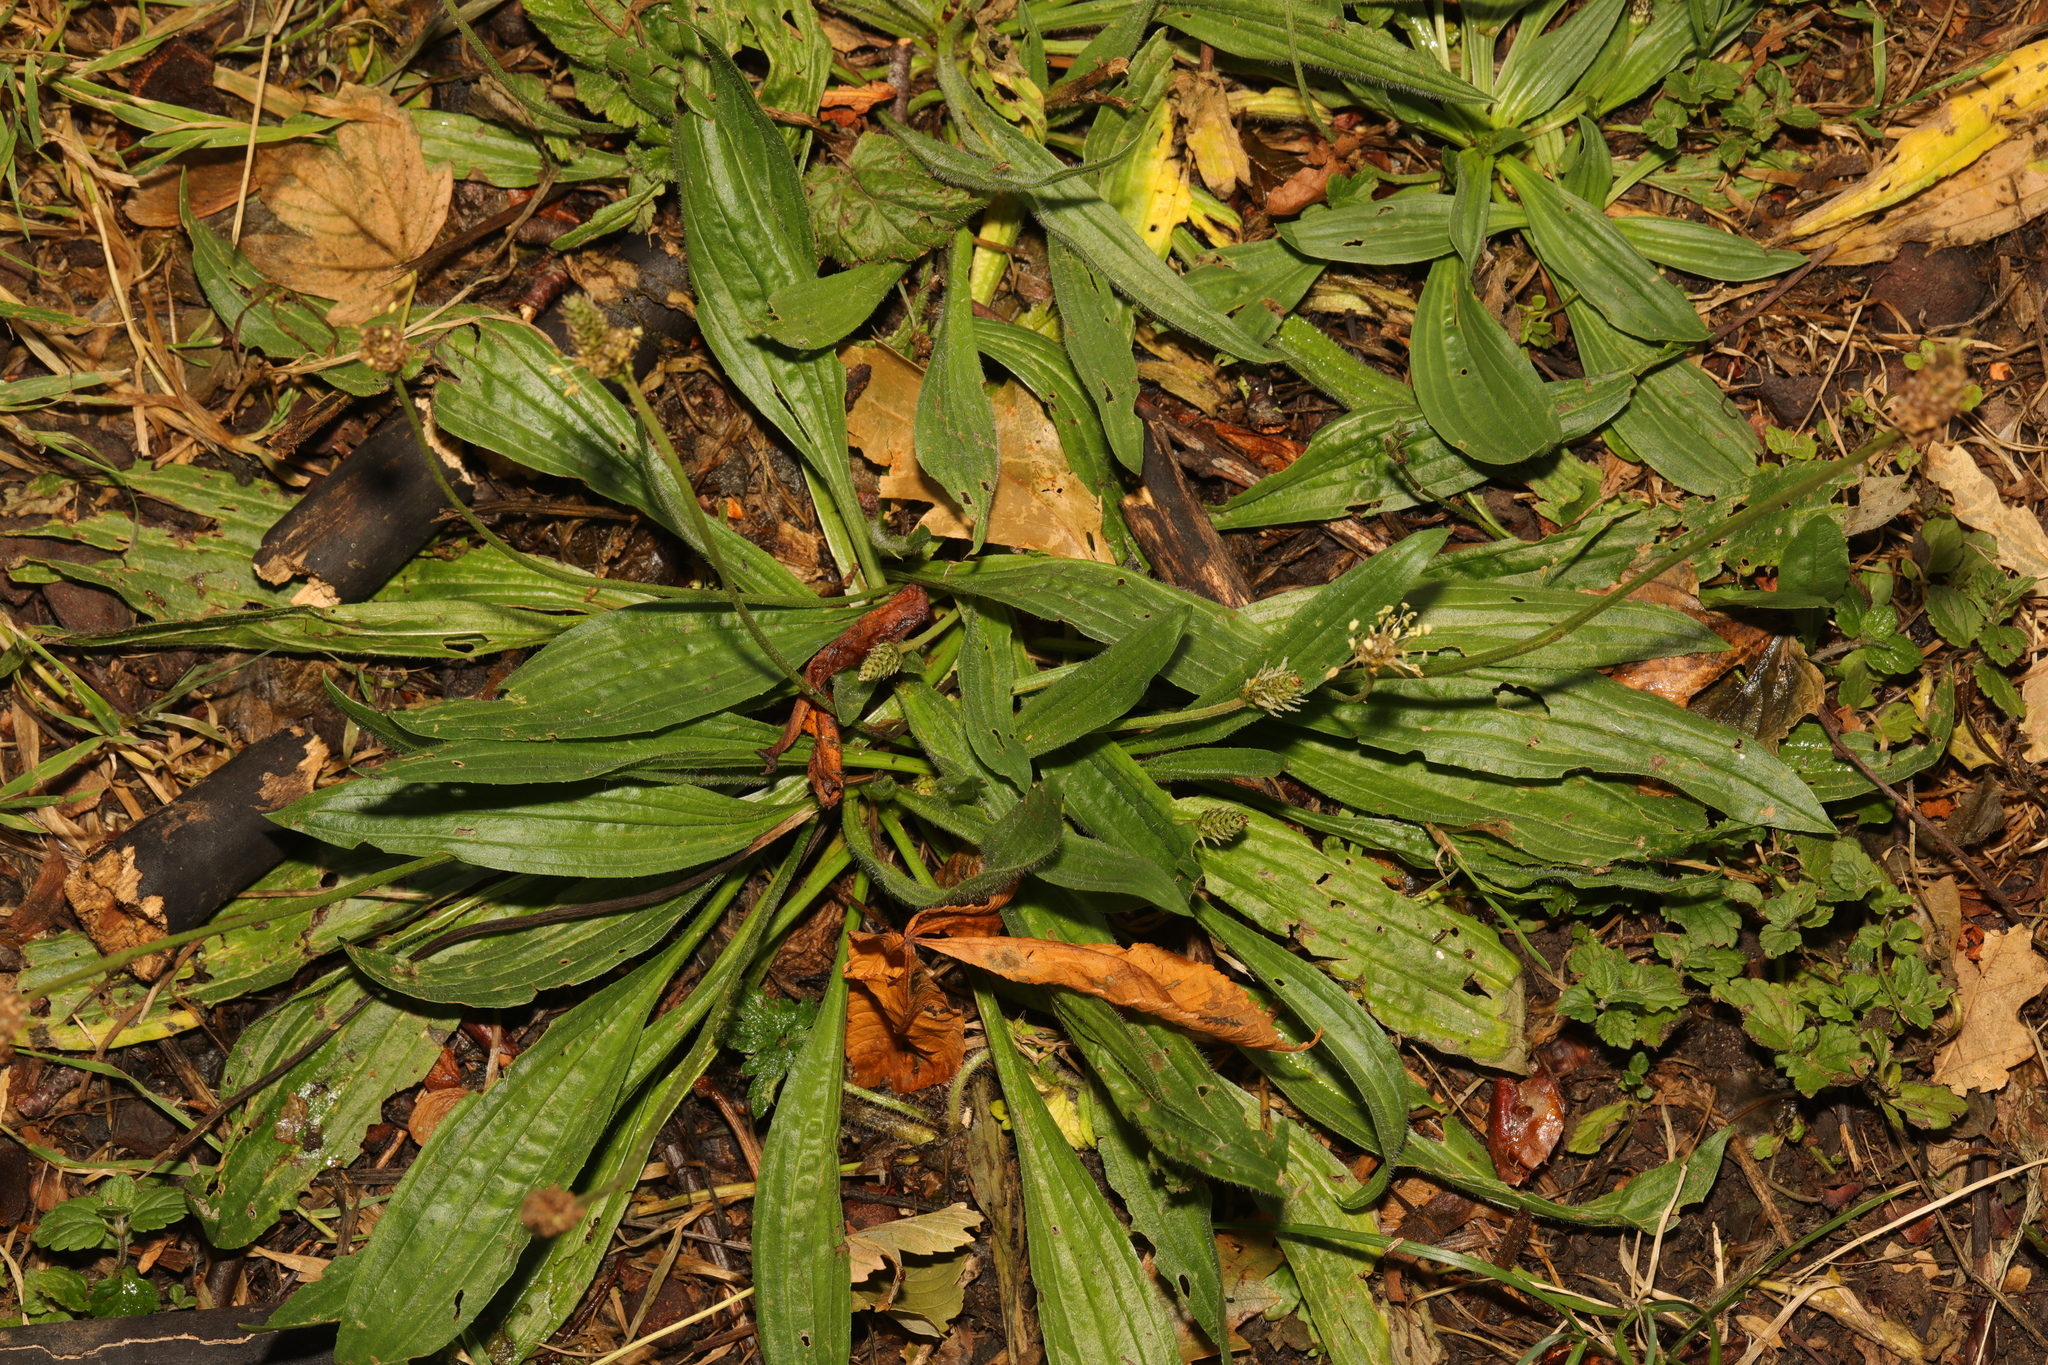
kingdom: Plantae
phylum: Tracheophyta
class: Magnoliopsida
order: Lamiales
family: Plantaginaceae
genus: Plantago
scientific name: Plantago lanceolata
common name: Ribwort plantain
